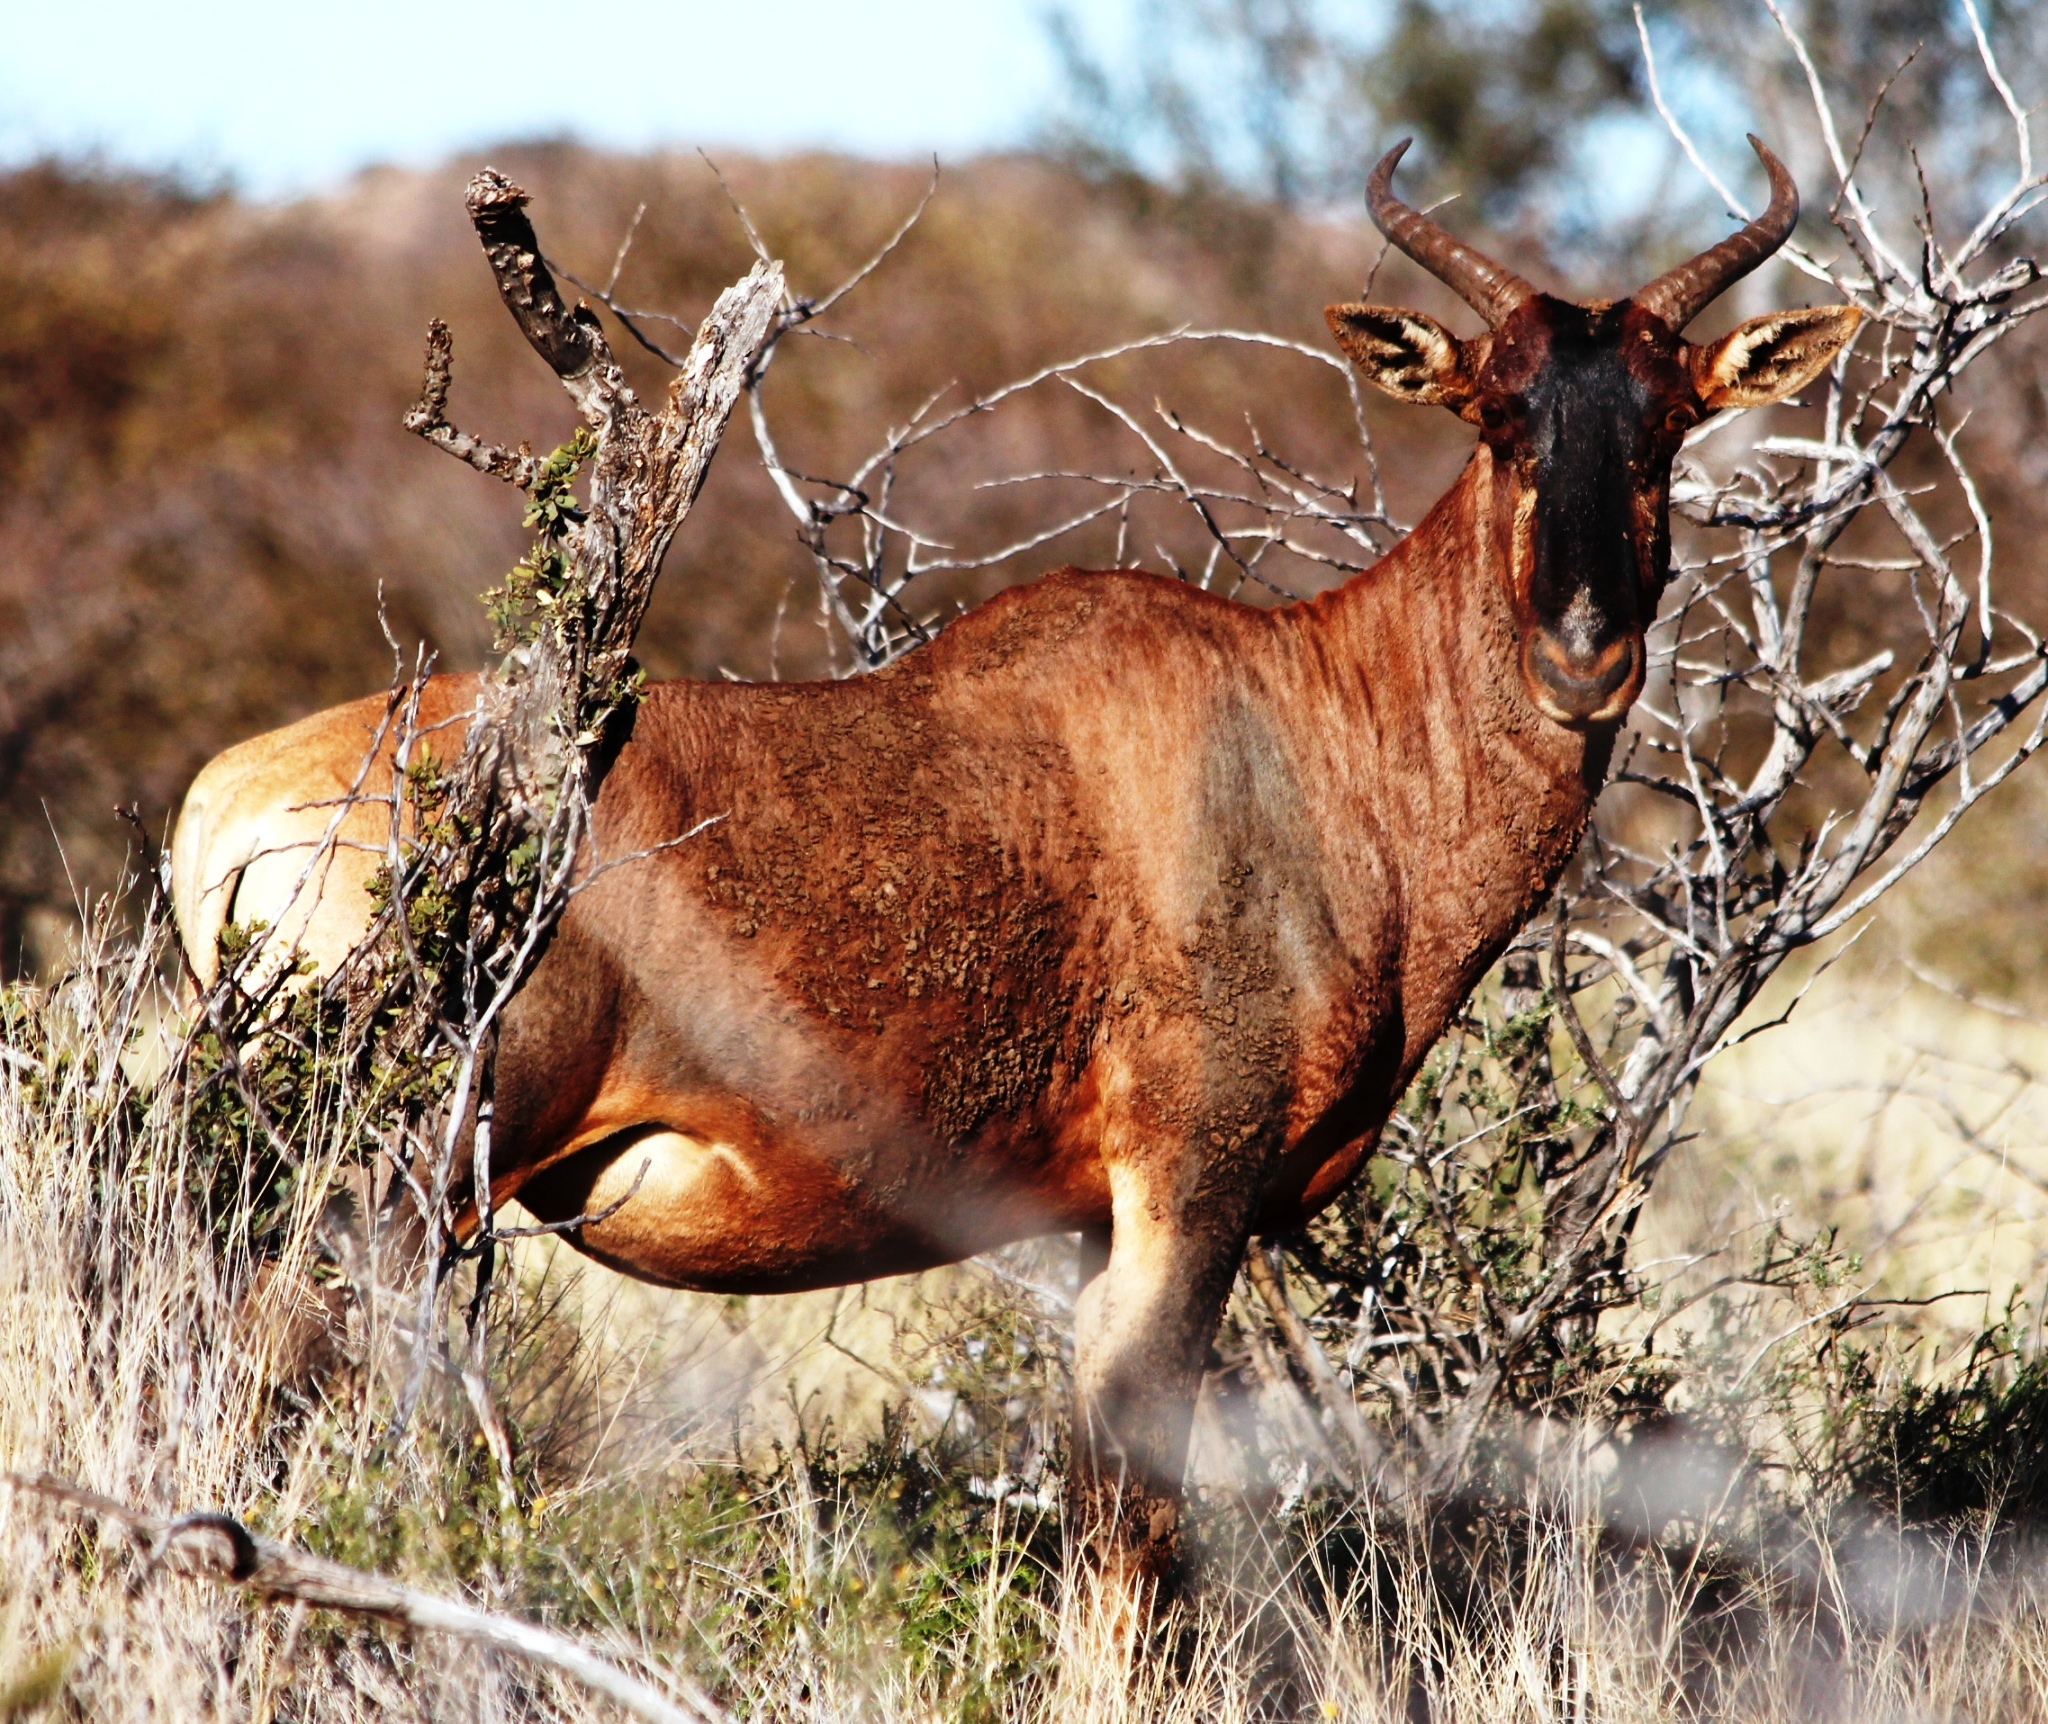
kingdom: Animalia
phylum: Chordata
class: Mammalia
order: Artiodactyla
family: Bovidae
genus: Damaliscus
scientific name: Damaliscus lunatus
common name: Common tsessebe
